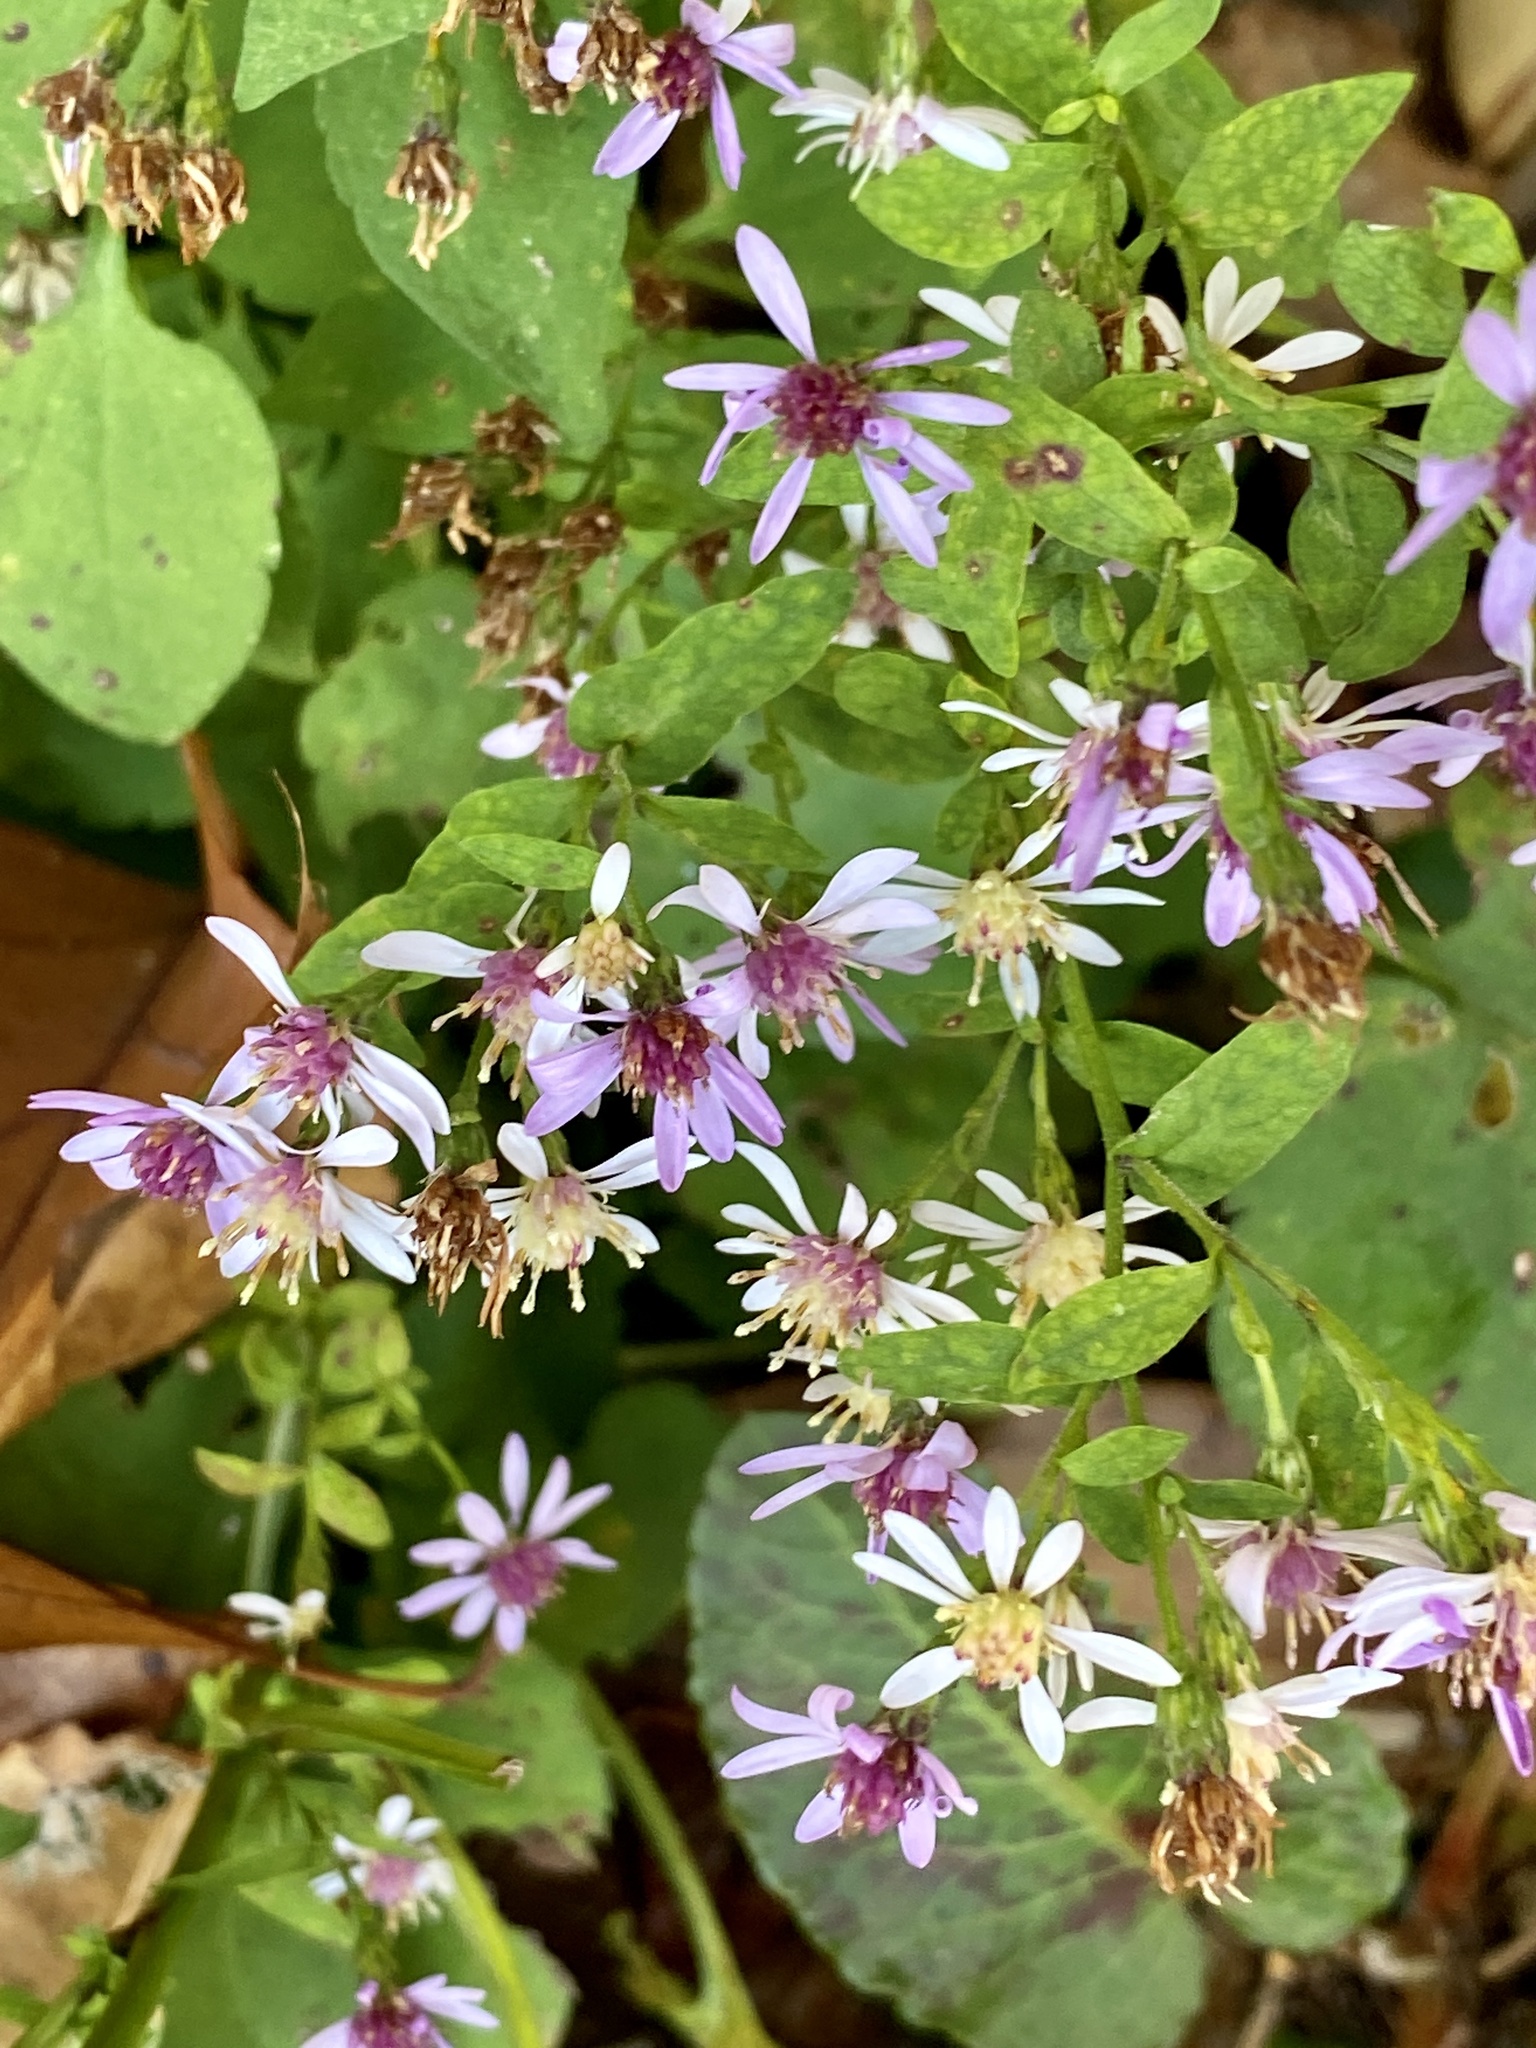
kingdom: Plantae
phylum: Tracheophyta
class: Magnoliopsida
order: Asterales
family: Asteraceae
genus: Symphyotrichum
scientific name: Symphyotrichum cordifolium
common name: Beeweed
